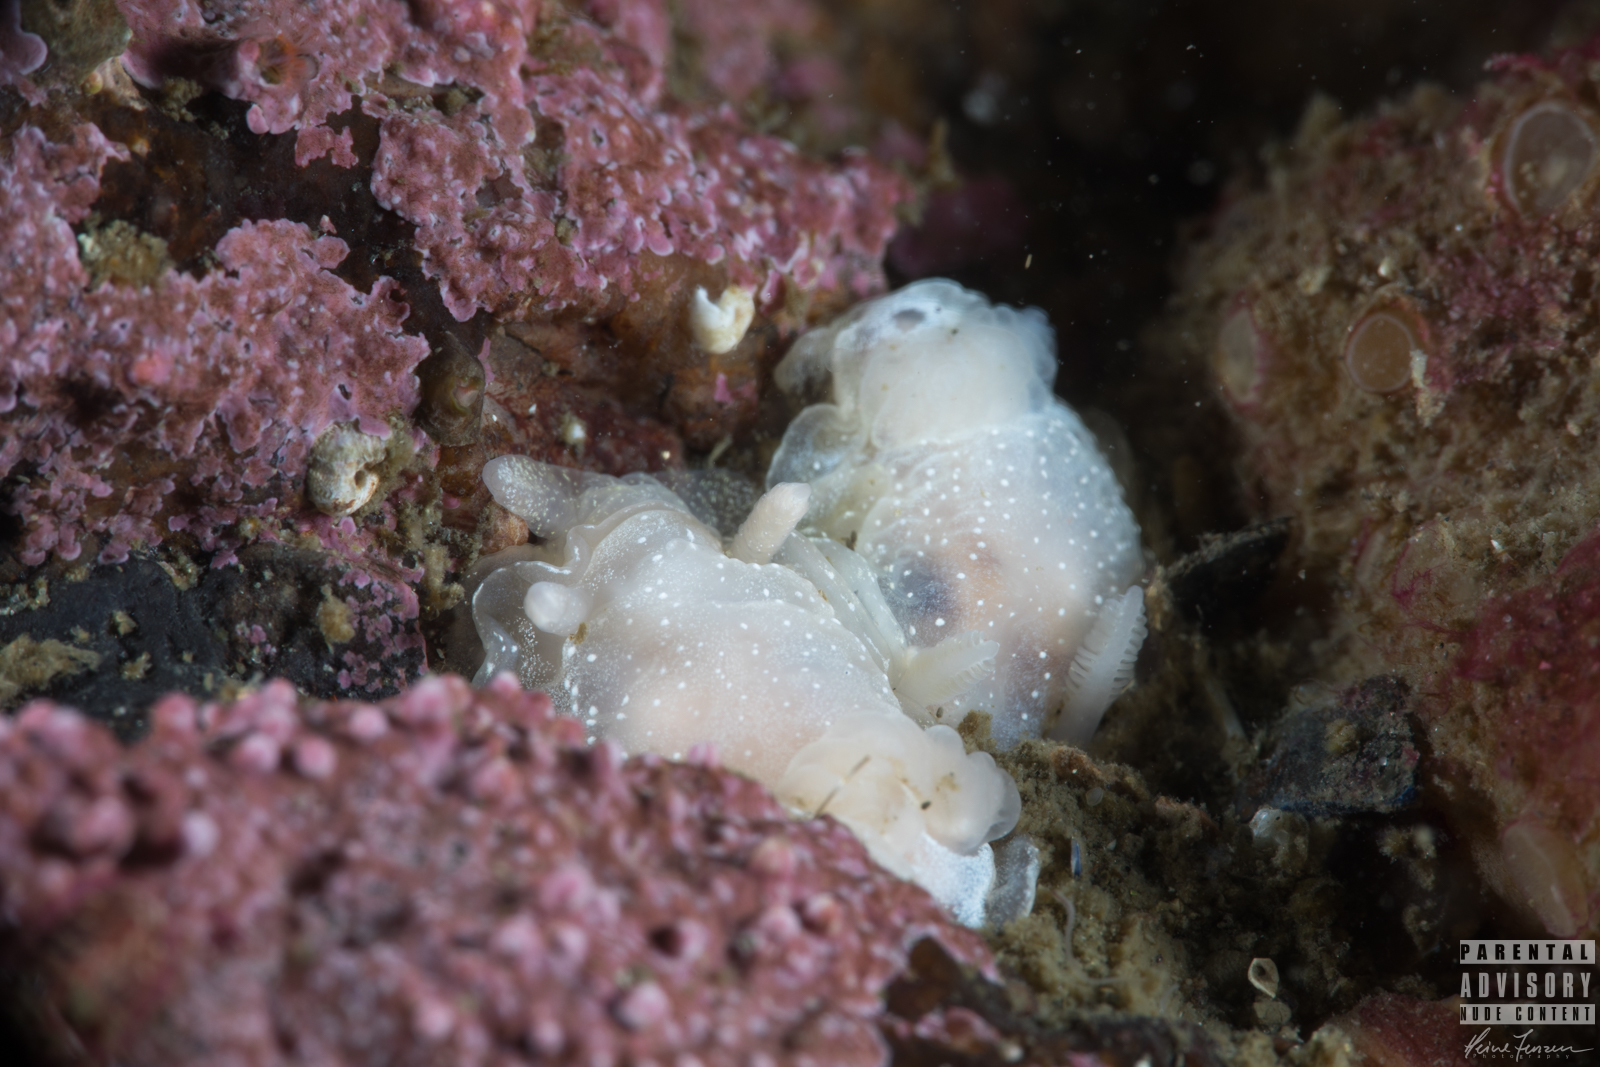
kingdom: Animalia
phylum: Mollusca
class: Gastropoda
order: Nudibranchia
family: Goniodorididae
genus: Okenia
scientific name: Okenia
